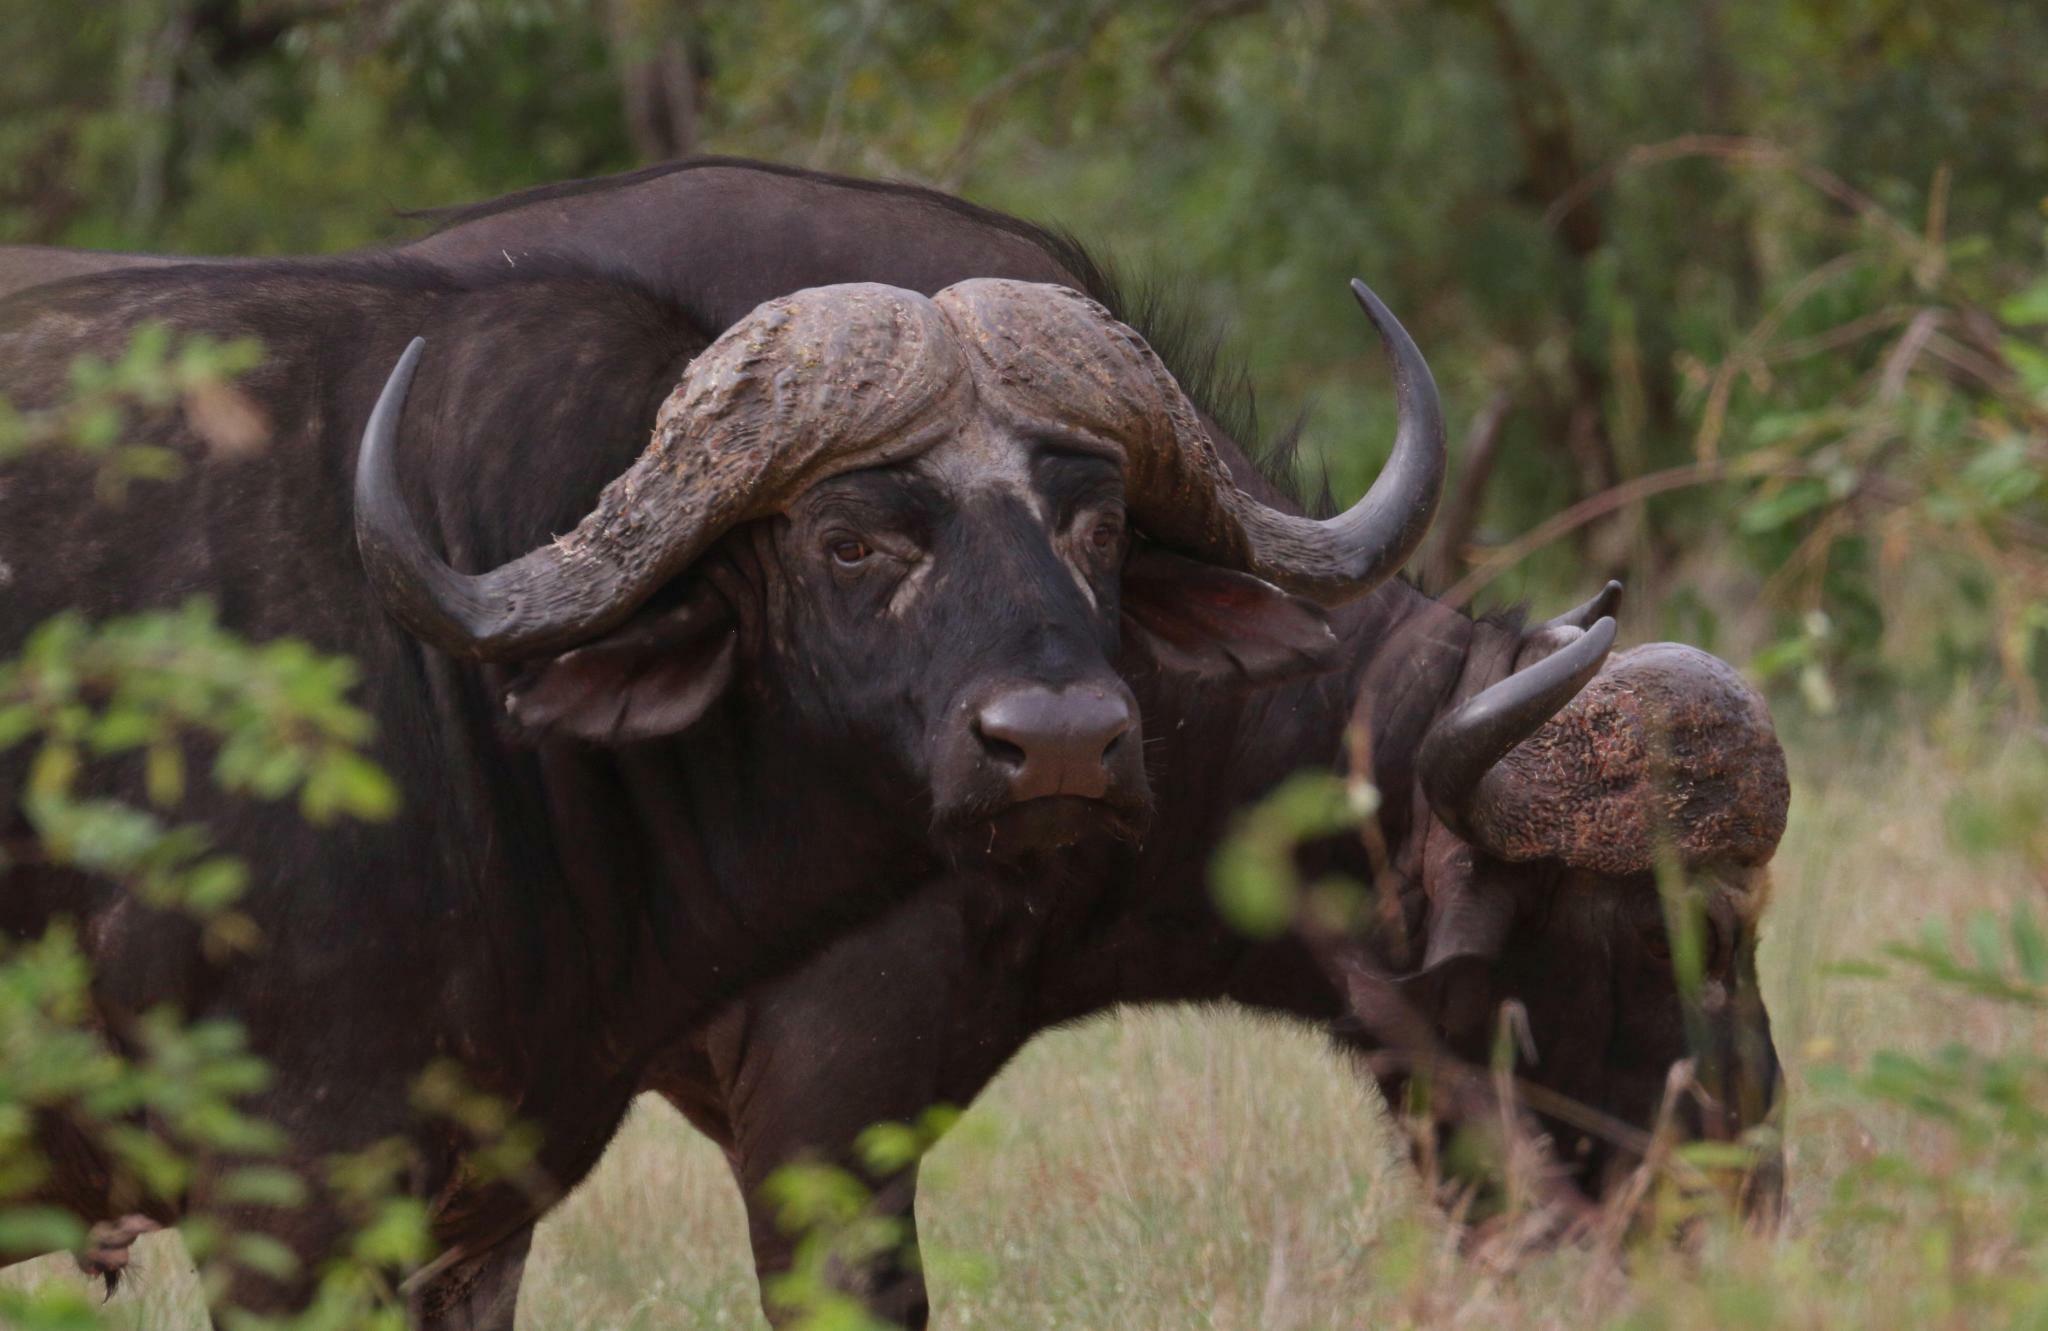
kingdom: Animalia
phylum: Chordata
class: Mammalia
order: Artiodactyla
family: Bovidae
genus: Syncerus
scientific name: Syncerus caffer
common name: African buffalo
